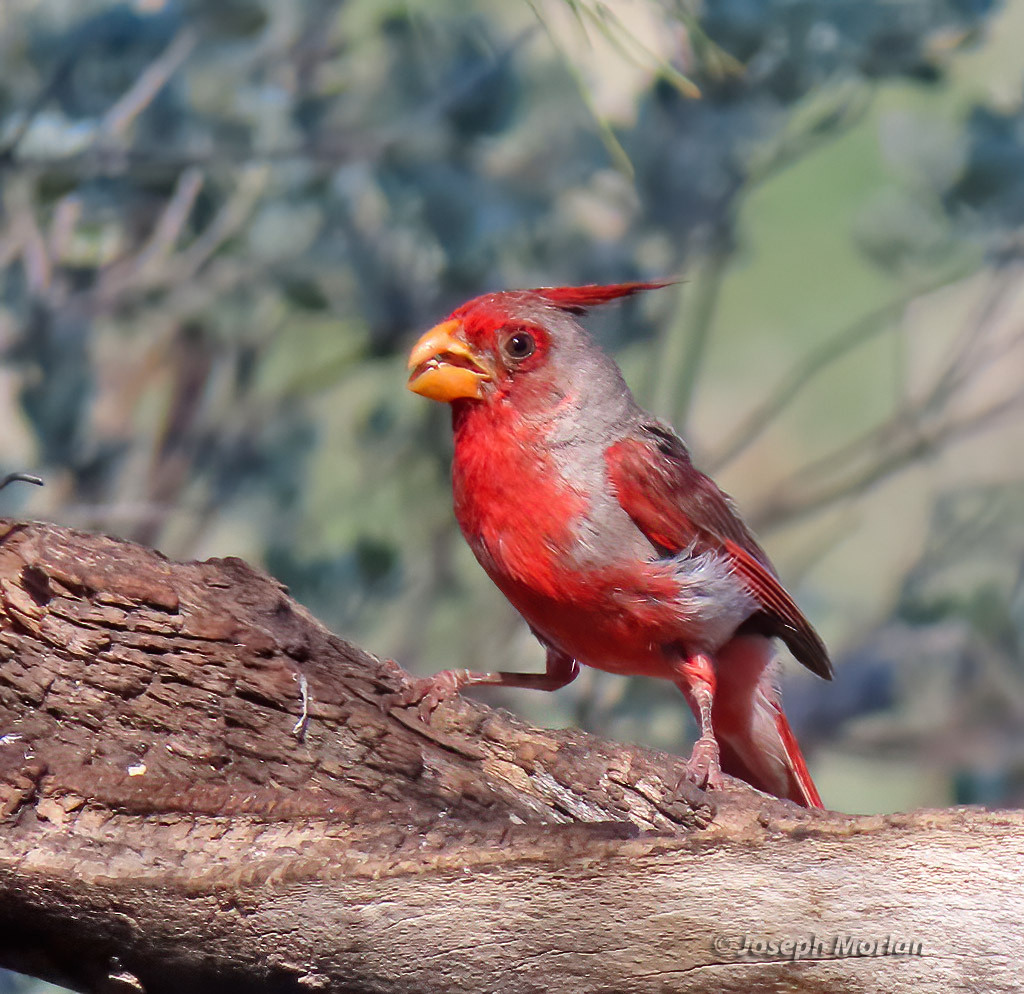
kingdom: Animalia
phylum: Chordata
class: Aves
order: Passeriformes
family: Cardinalidae
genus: Cardinalis
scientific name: Cardinalis sinuatus
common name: Pyrrhuloxia
